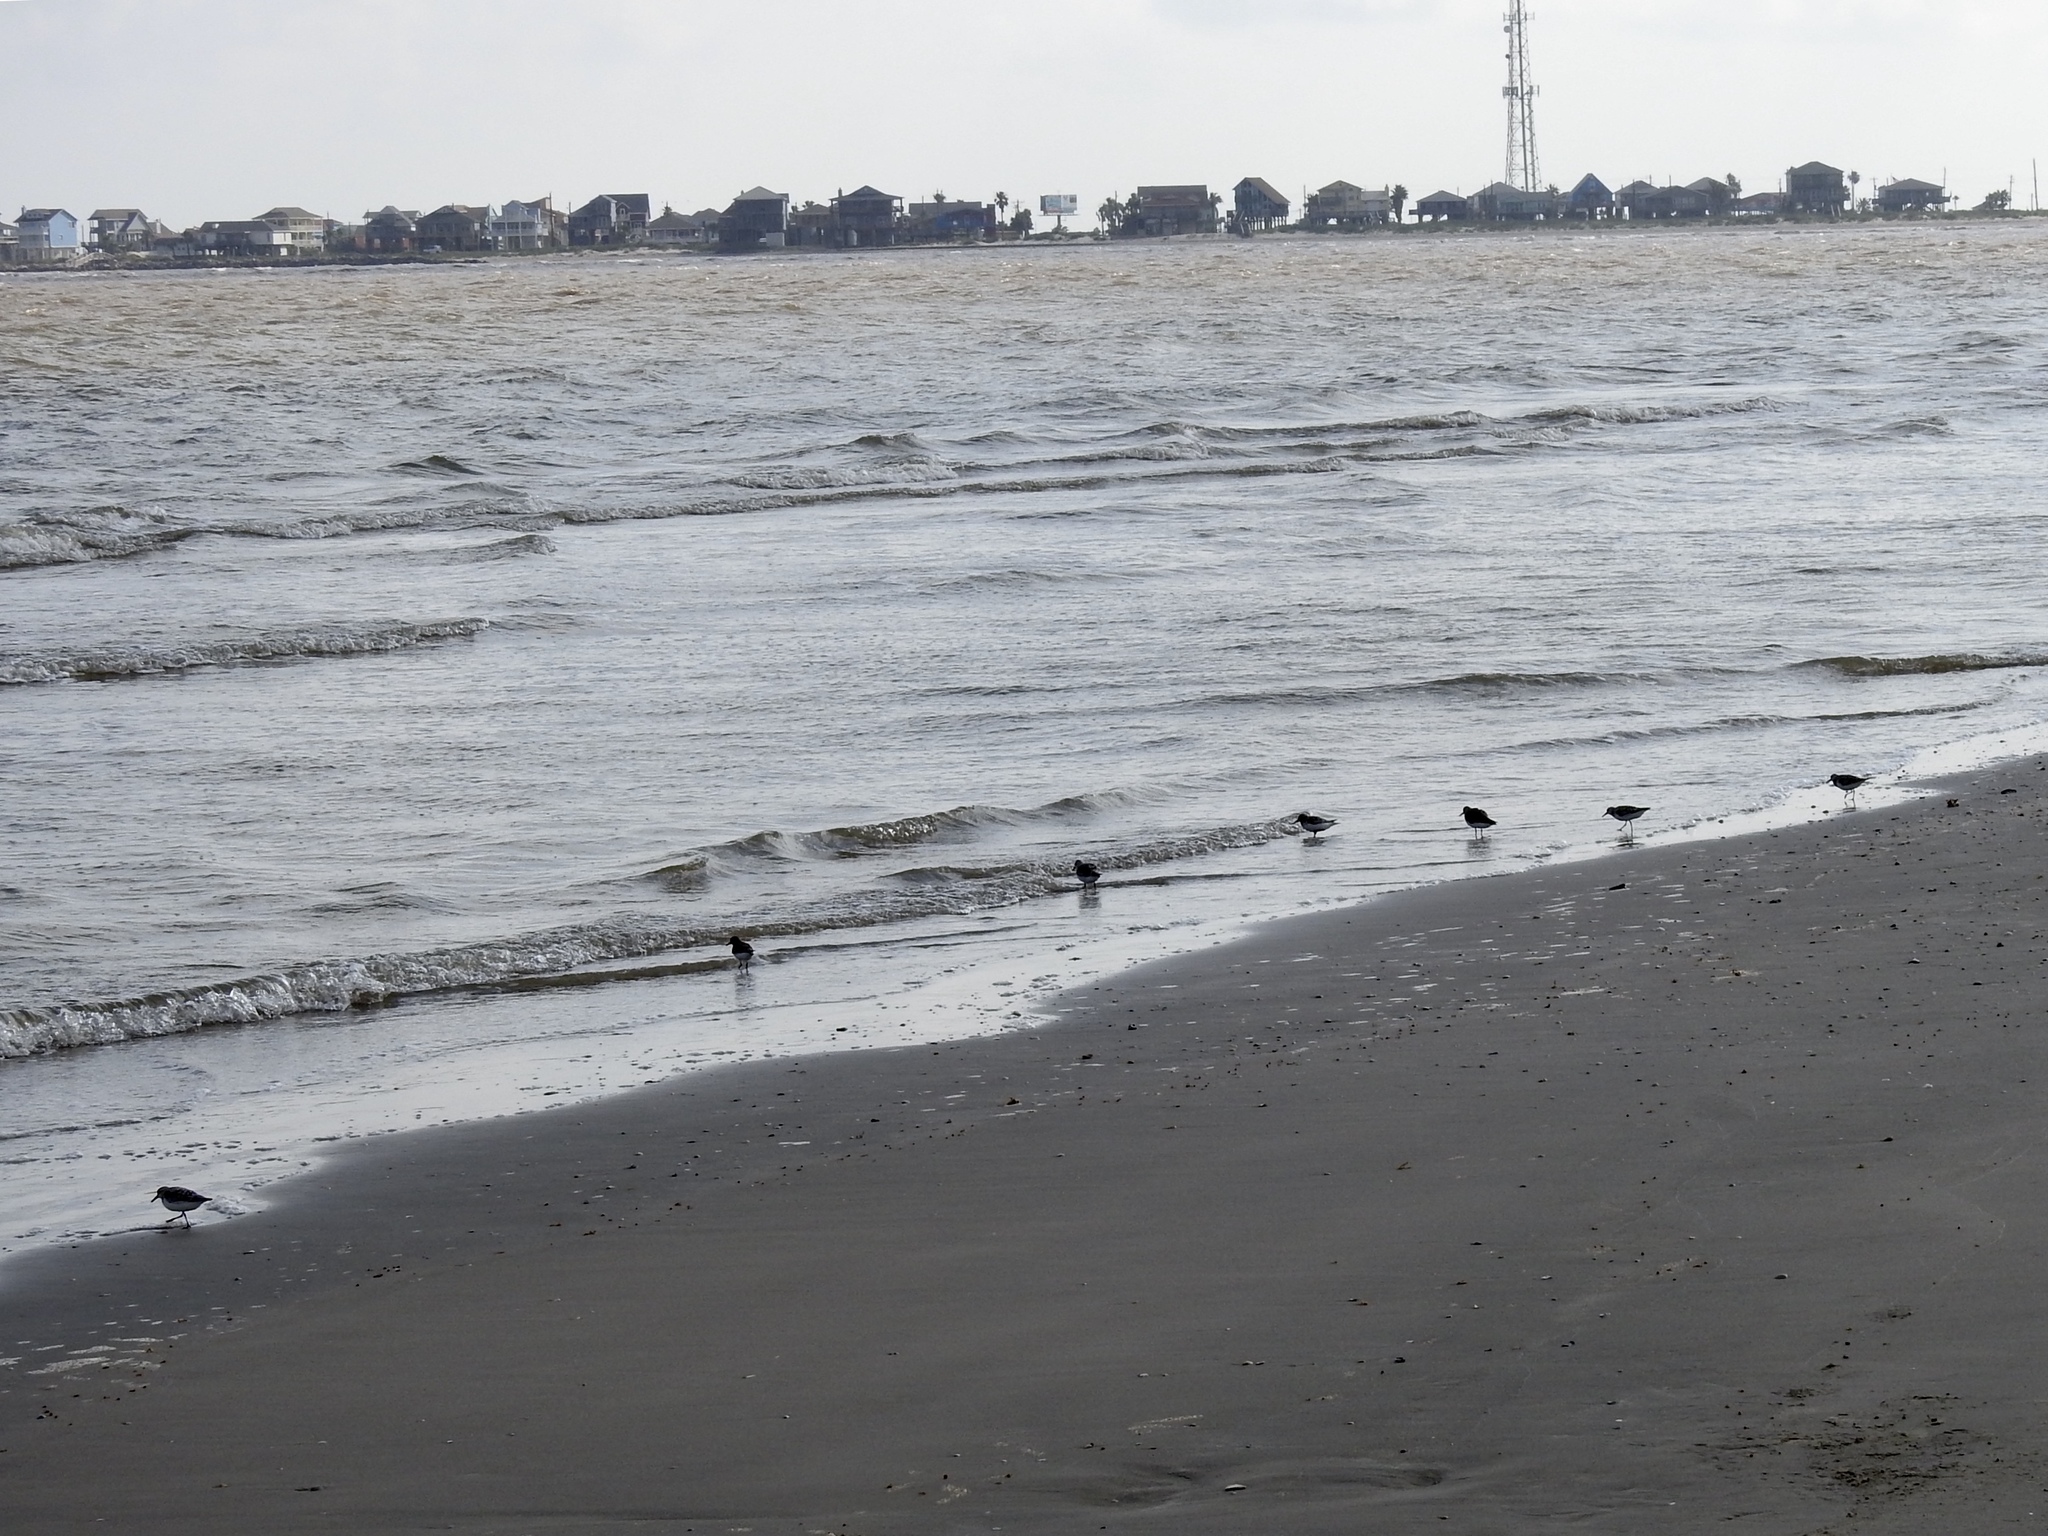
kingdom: Animalia
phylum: Chordata
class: Aves
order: Charadriiformes
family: Scolopacidae
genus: Calidris
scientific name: Calidris alba
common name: Sanderling
